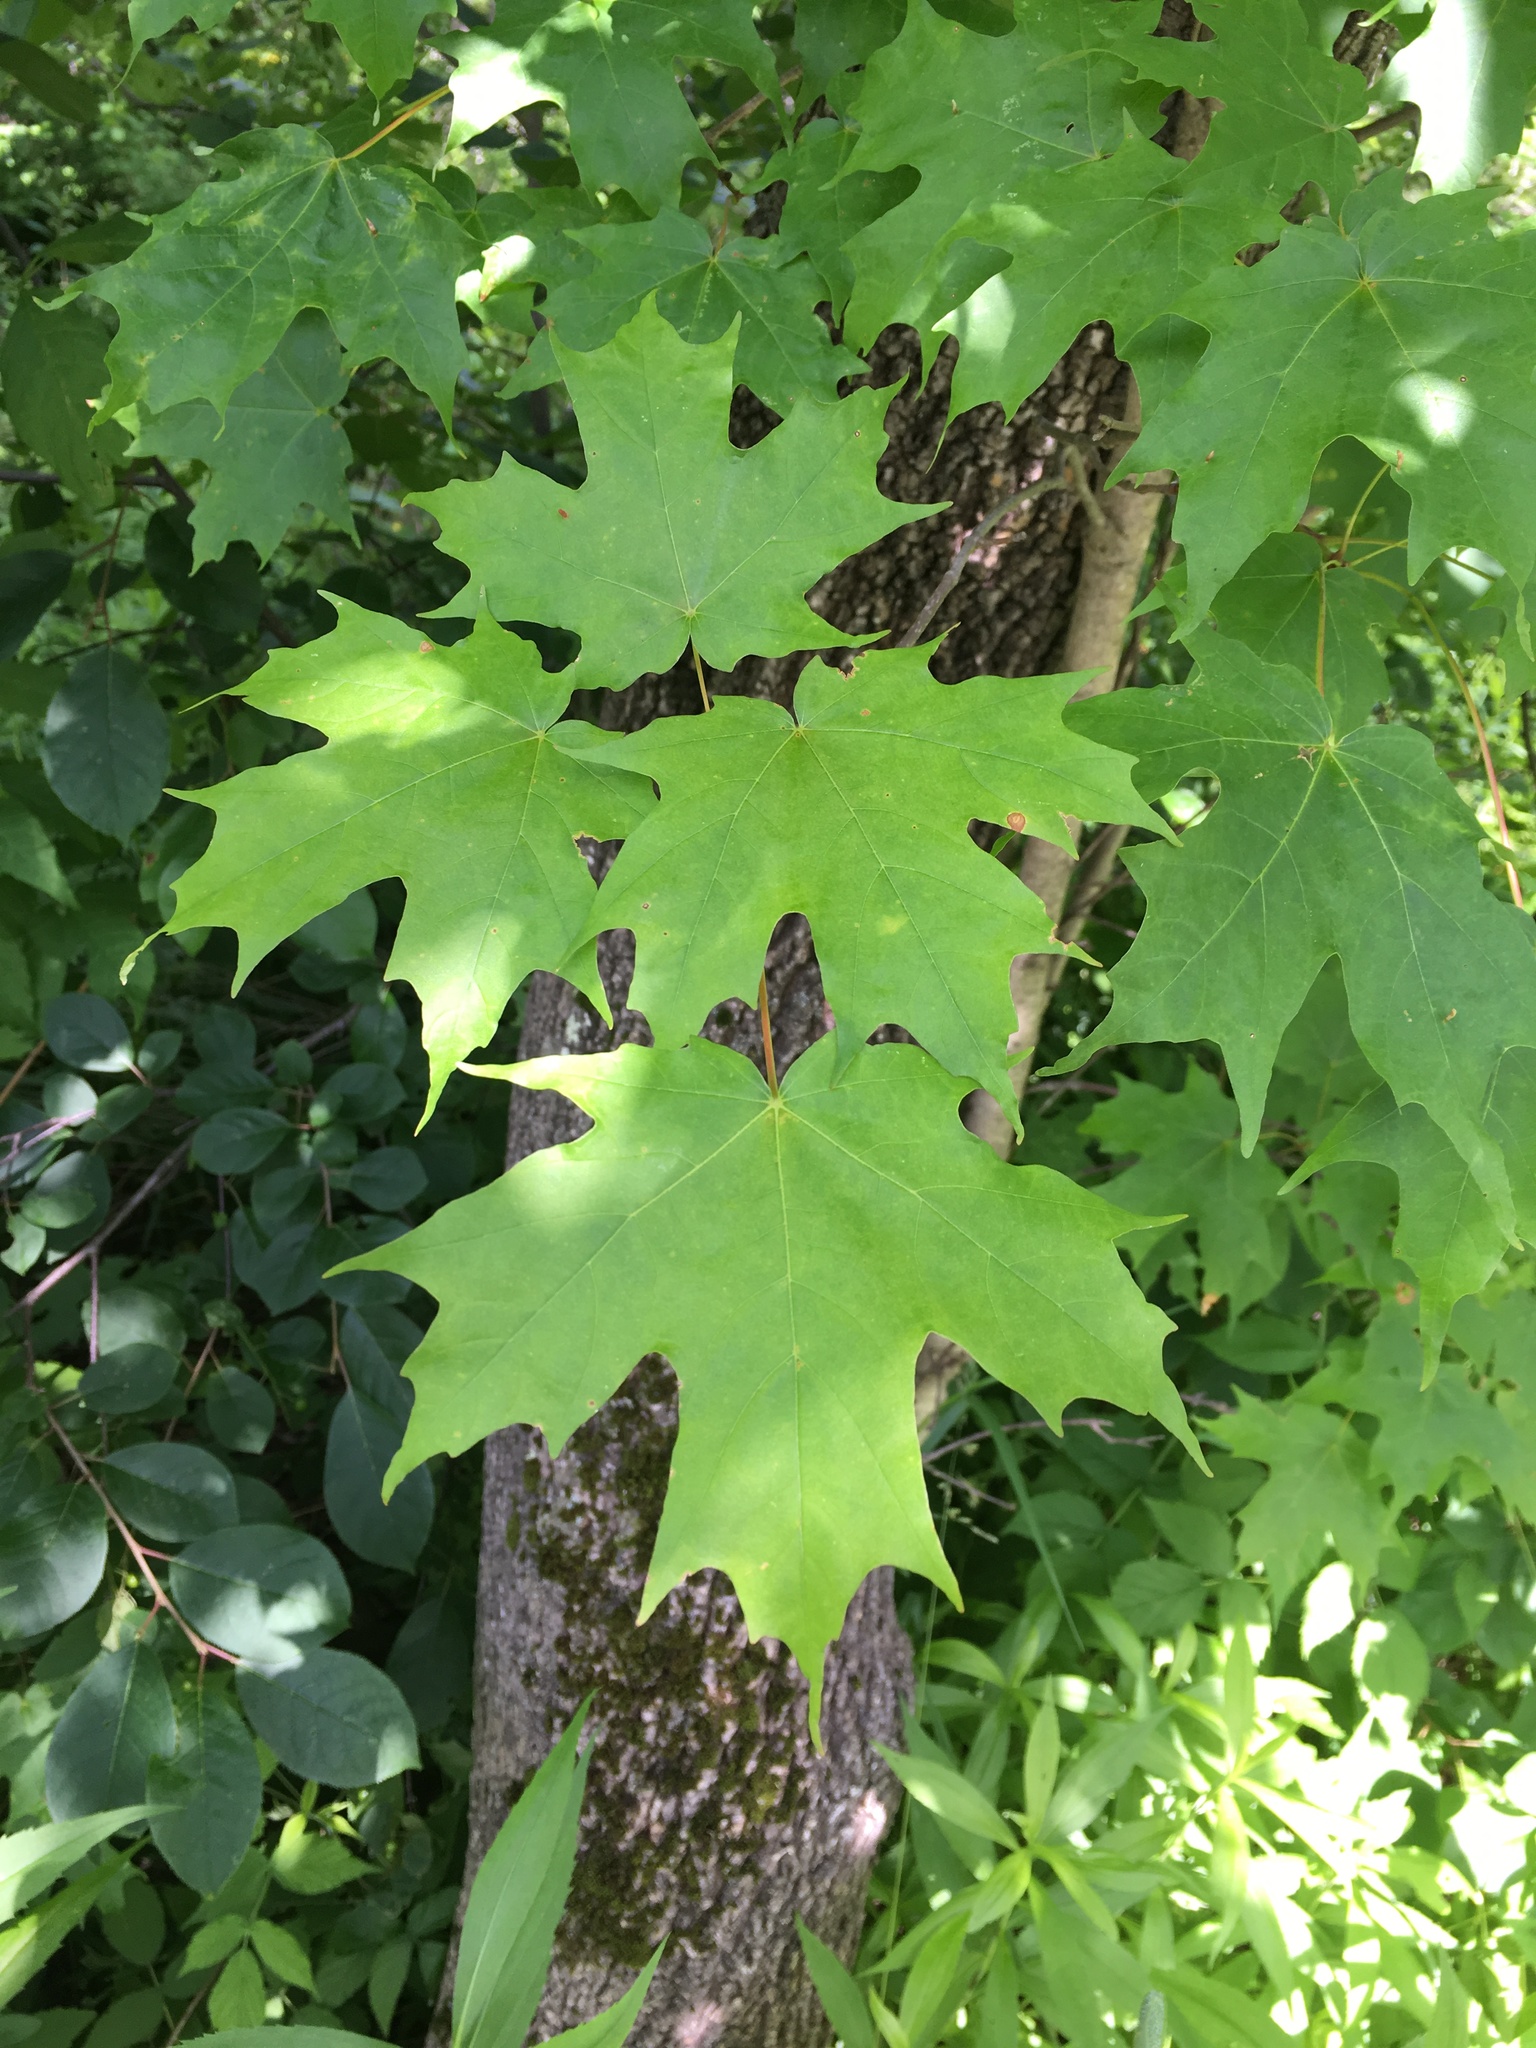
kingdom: Plantae
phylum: Tracheophyta
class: Magnoliopsida
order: Sapindales
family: Sapindaceae
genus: Acer
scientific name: Acer saccharum
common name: Sugar maple
